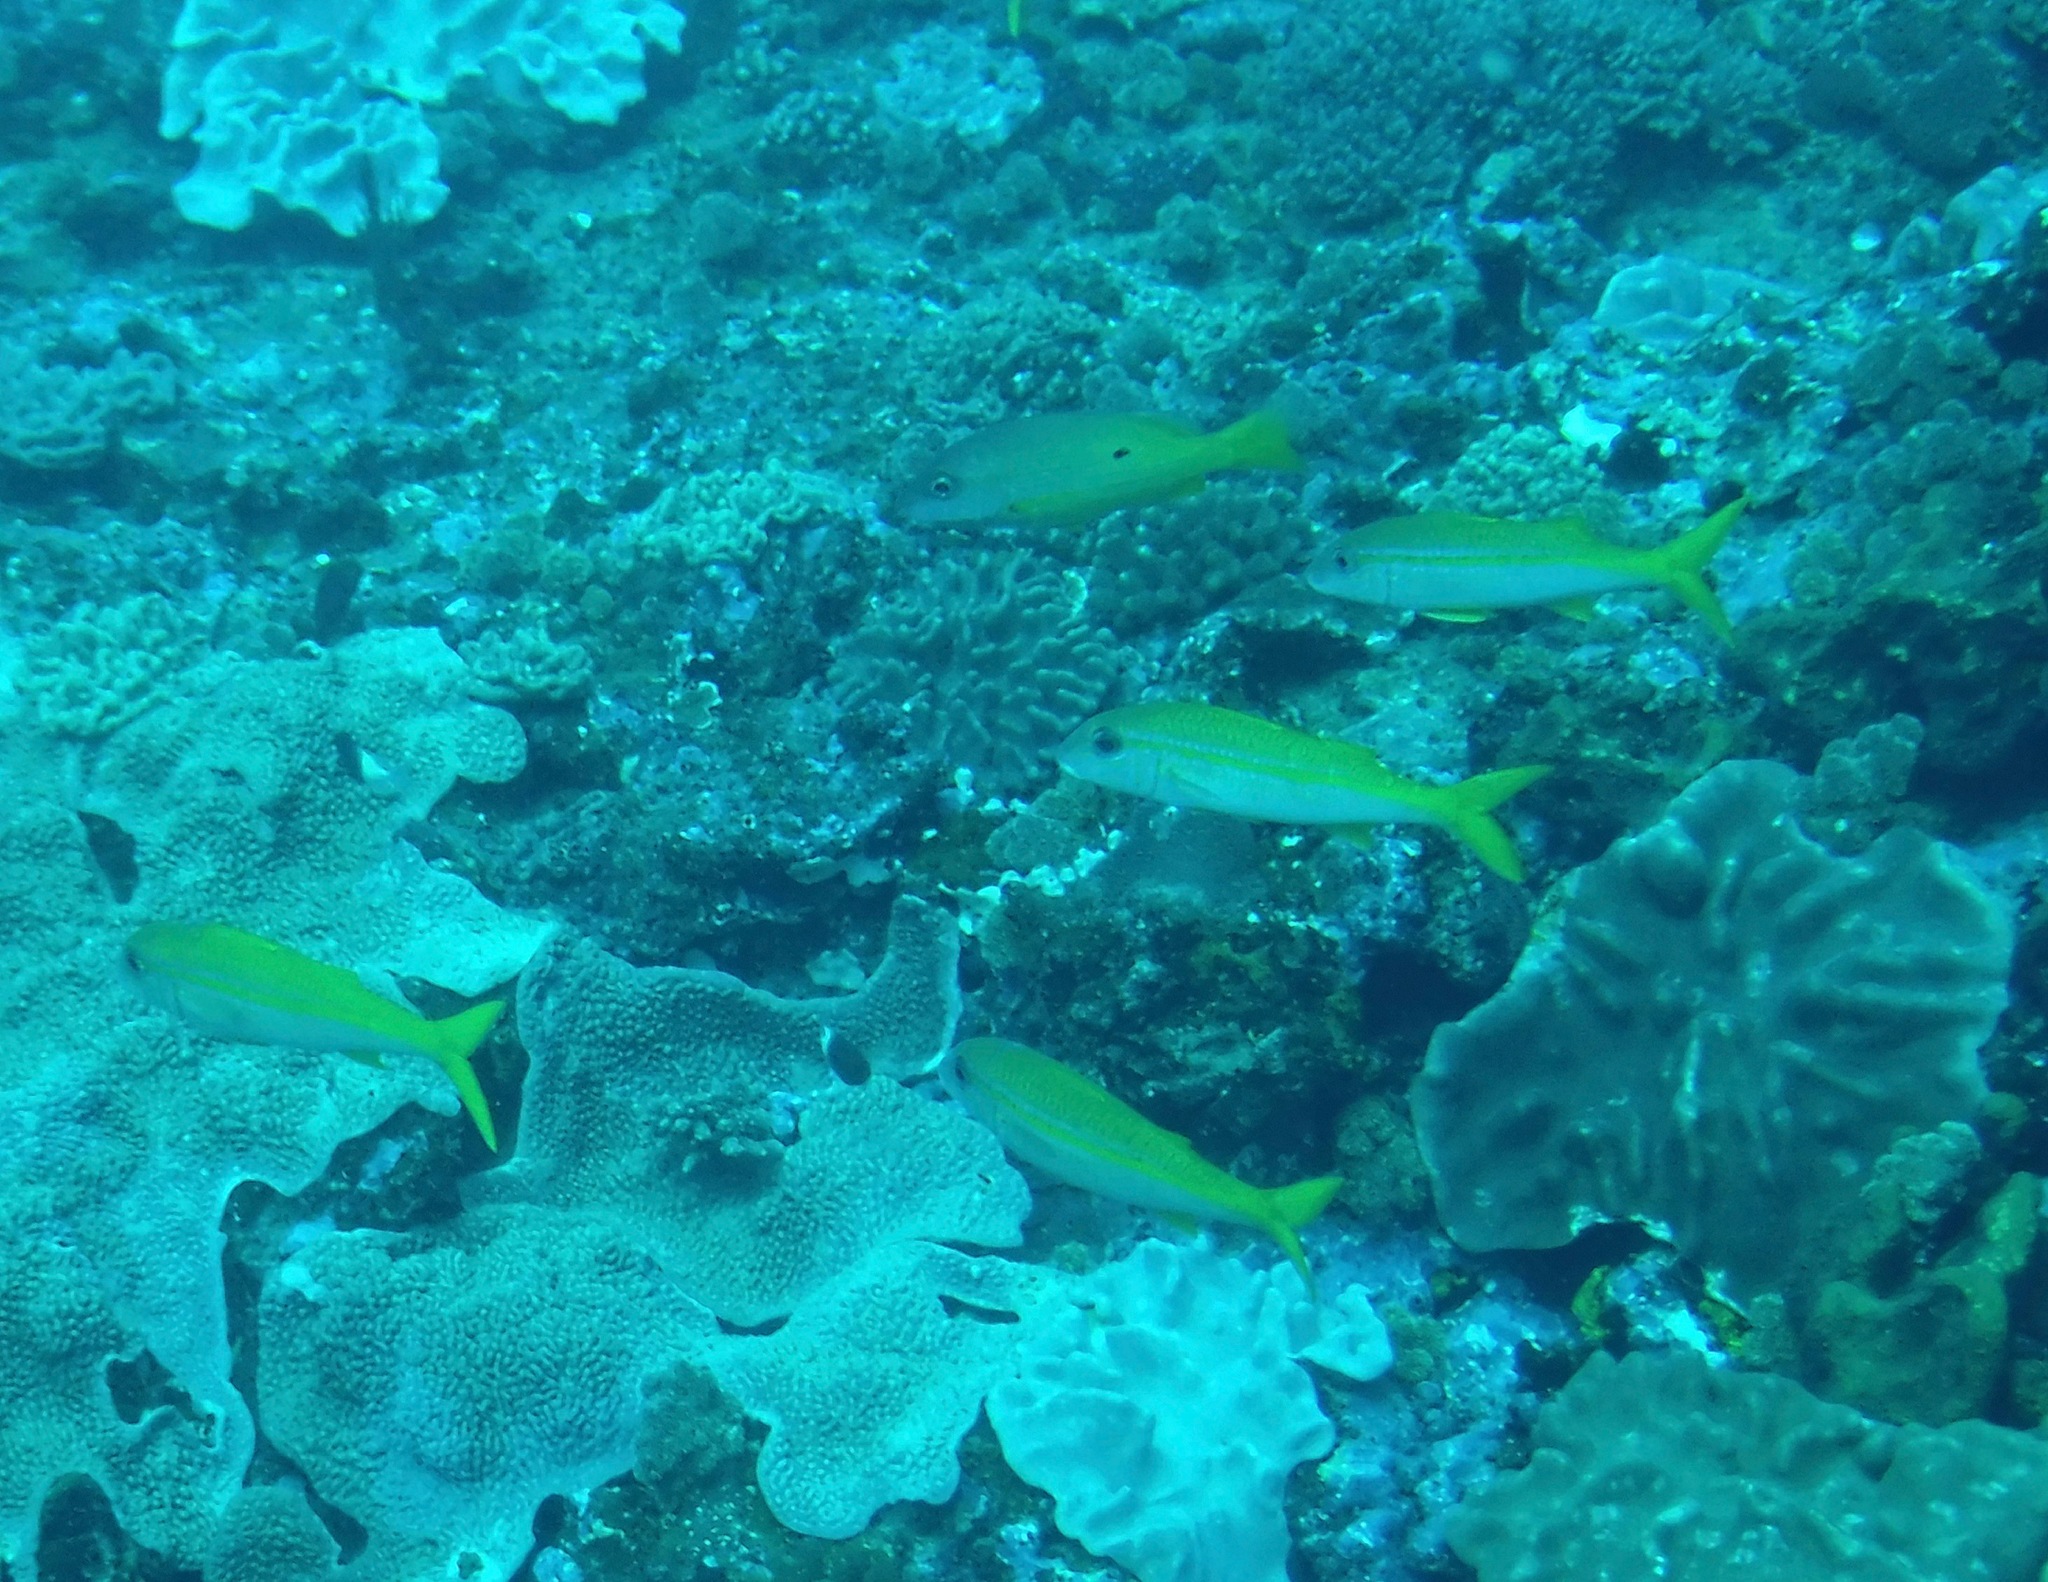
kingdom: Animalia
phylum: Chordata
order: Perciformes
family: Mullidae
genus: Mulloidichthys
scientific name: Mulloidichthys vanicolensis
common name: Yellowfin goatfish
